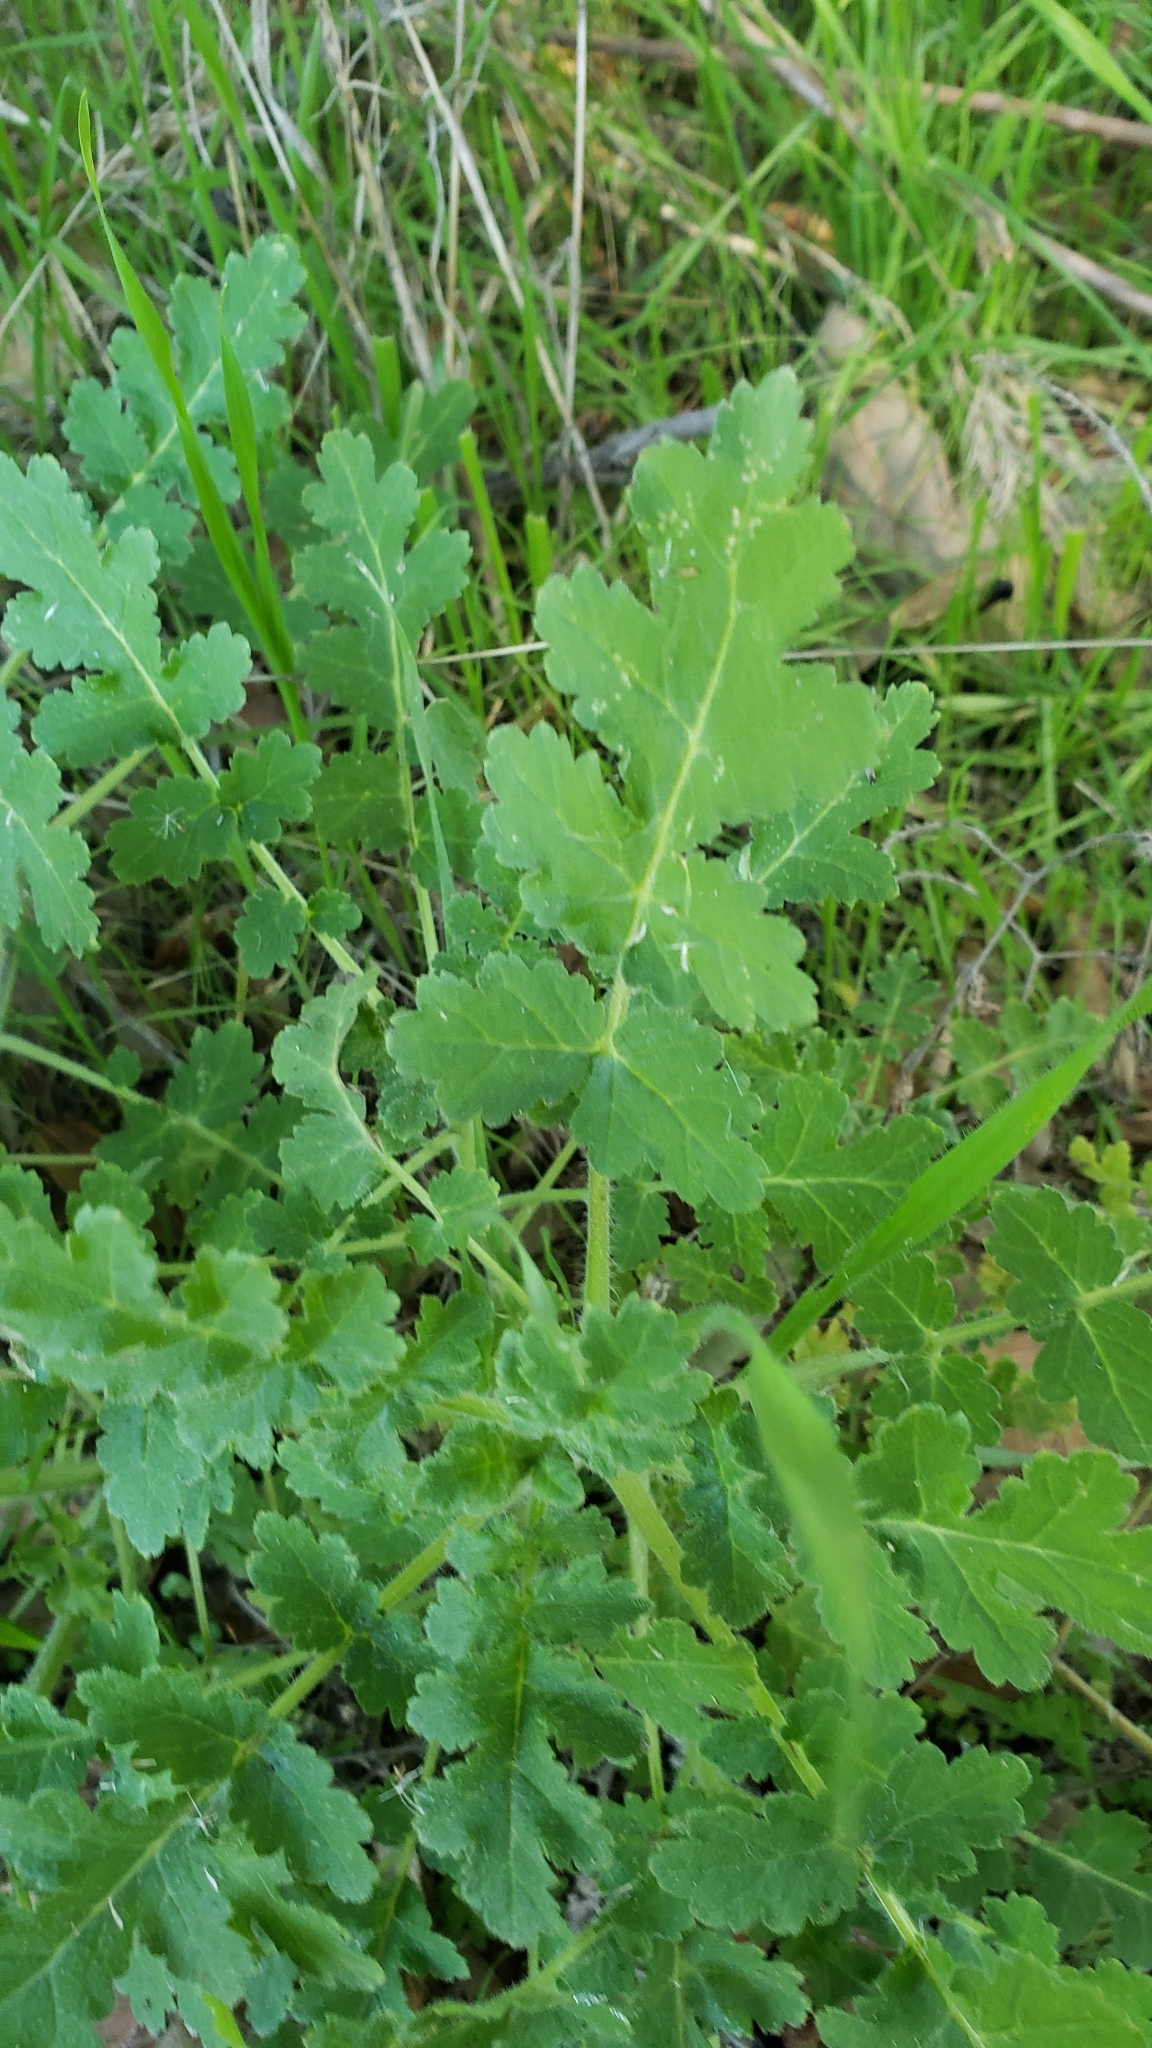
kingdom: Plantae
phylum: Tracheophyta
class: Magnoliopsida
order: Boraginales
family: Hydrophyllaceae
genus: Phacelia
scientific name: Phacelia ramosissima
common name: Branching phacelia
